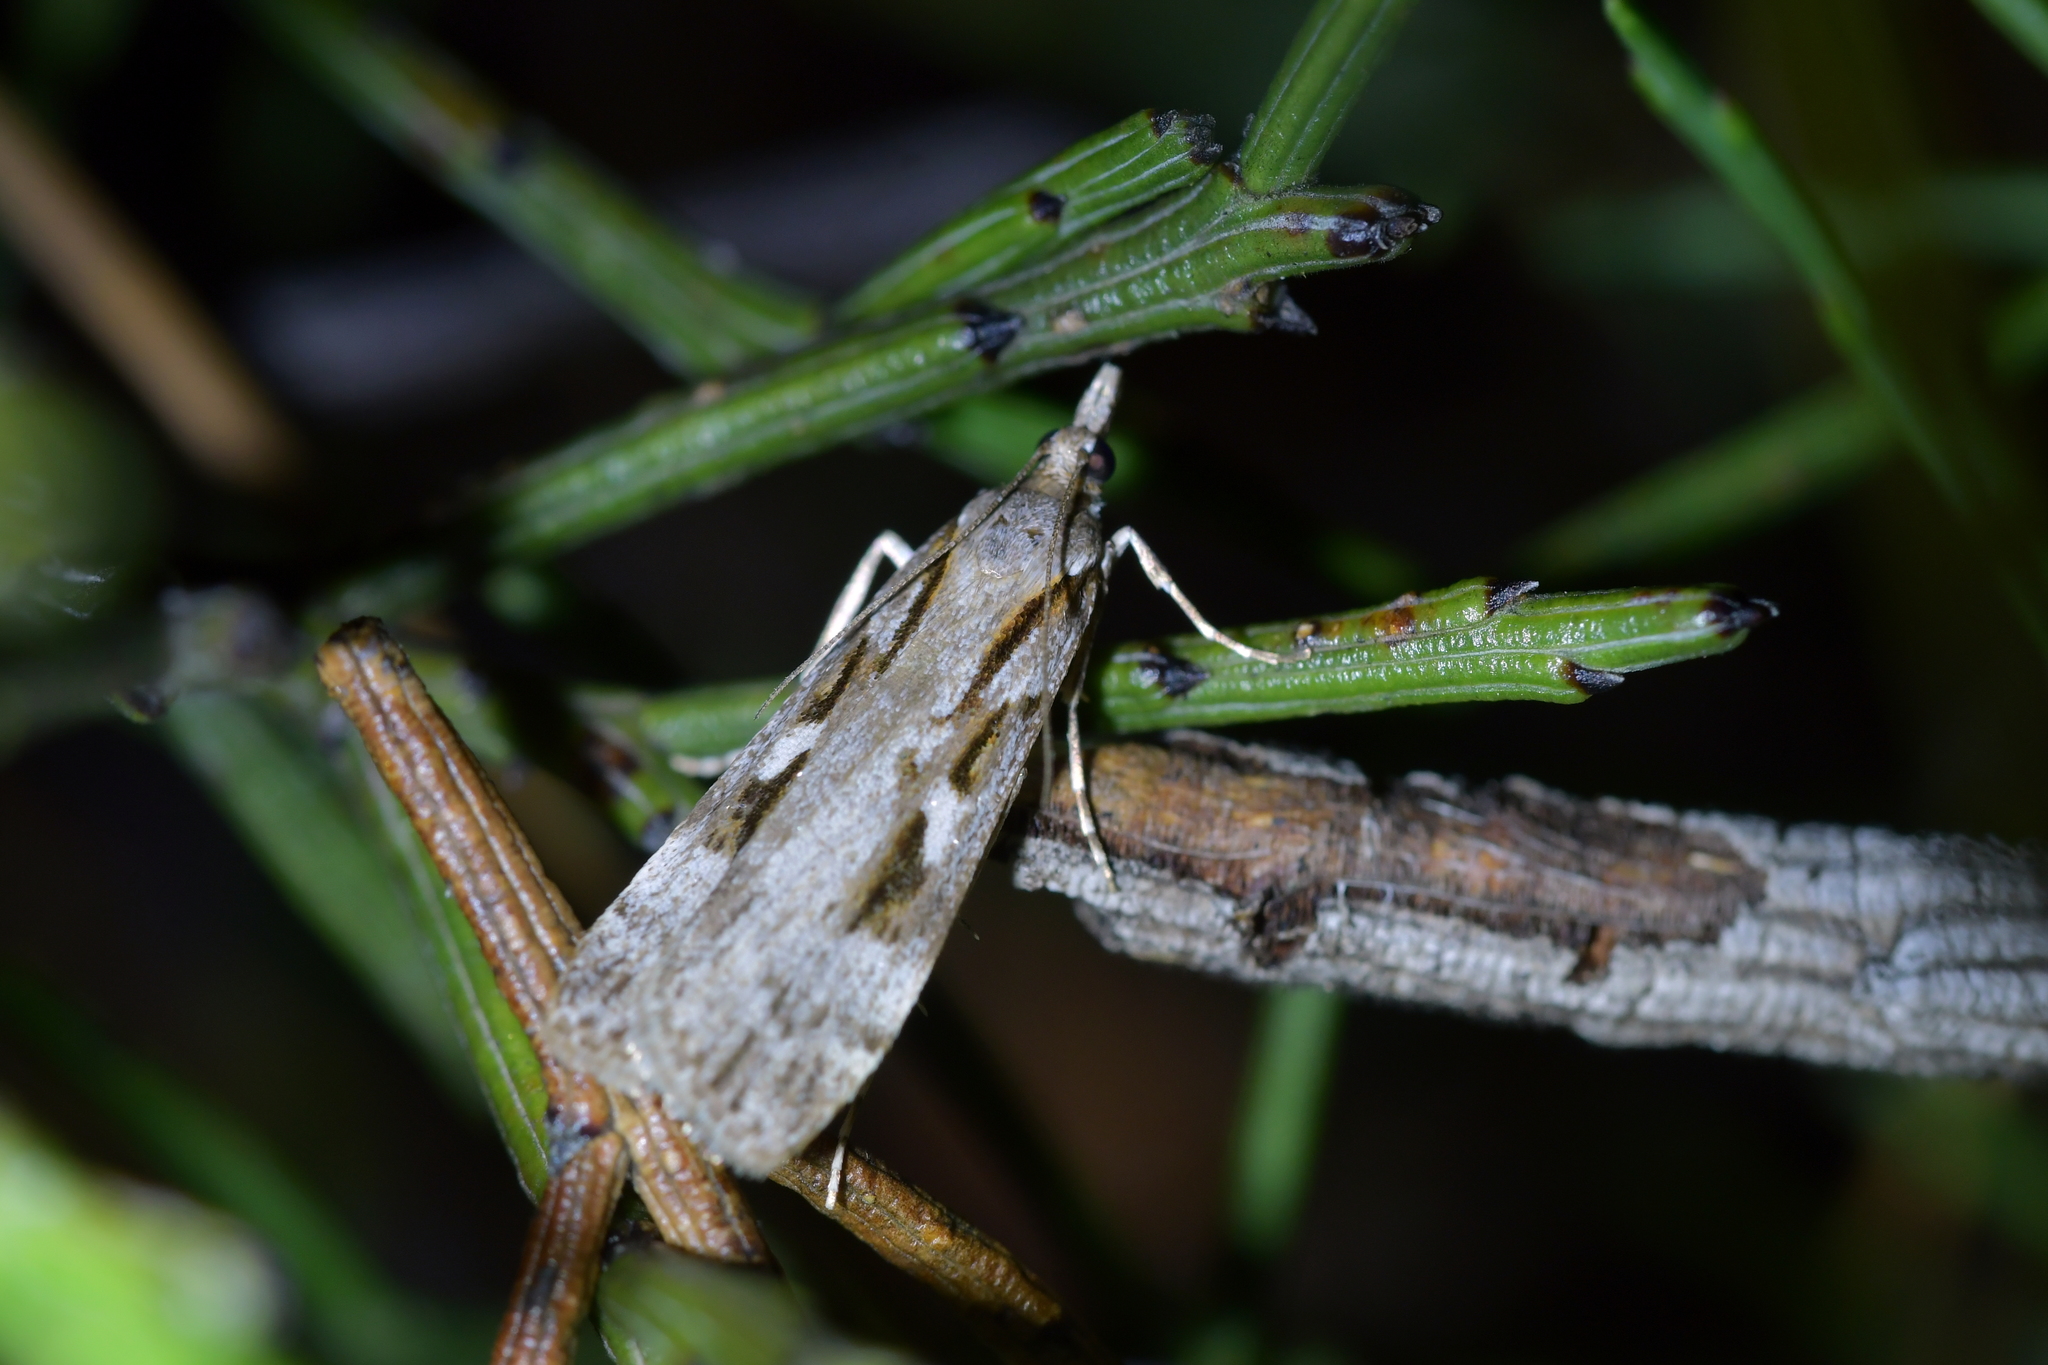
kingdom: Animalia
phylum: Arthropoda
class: Insecta
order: Lepidoptera
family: Crambidae
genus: Scoparia
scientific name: Scoparia cyameuta
